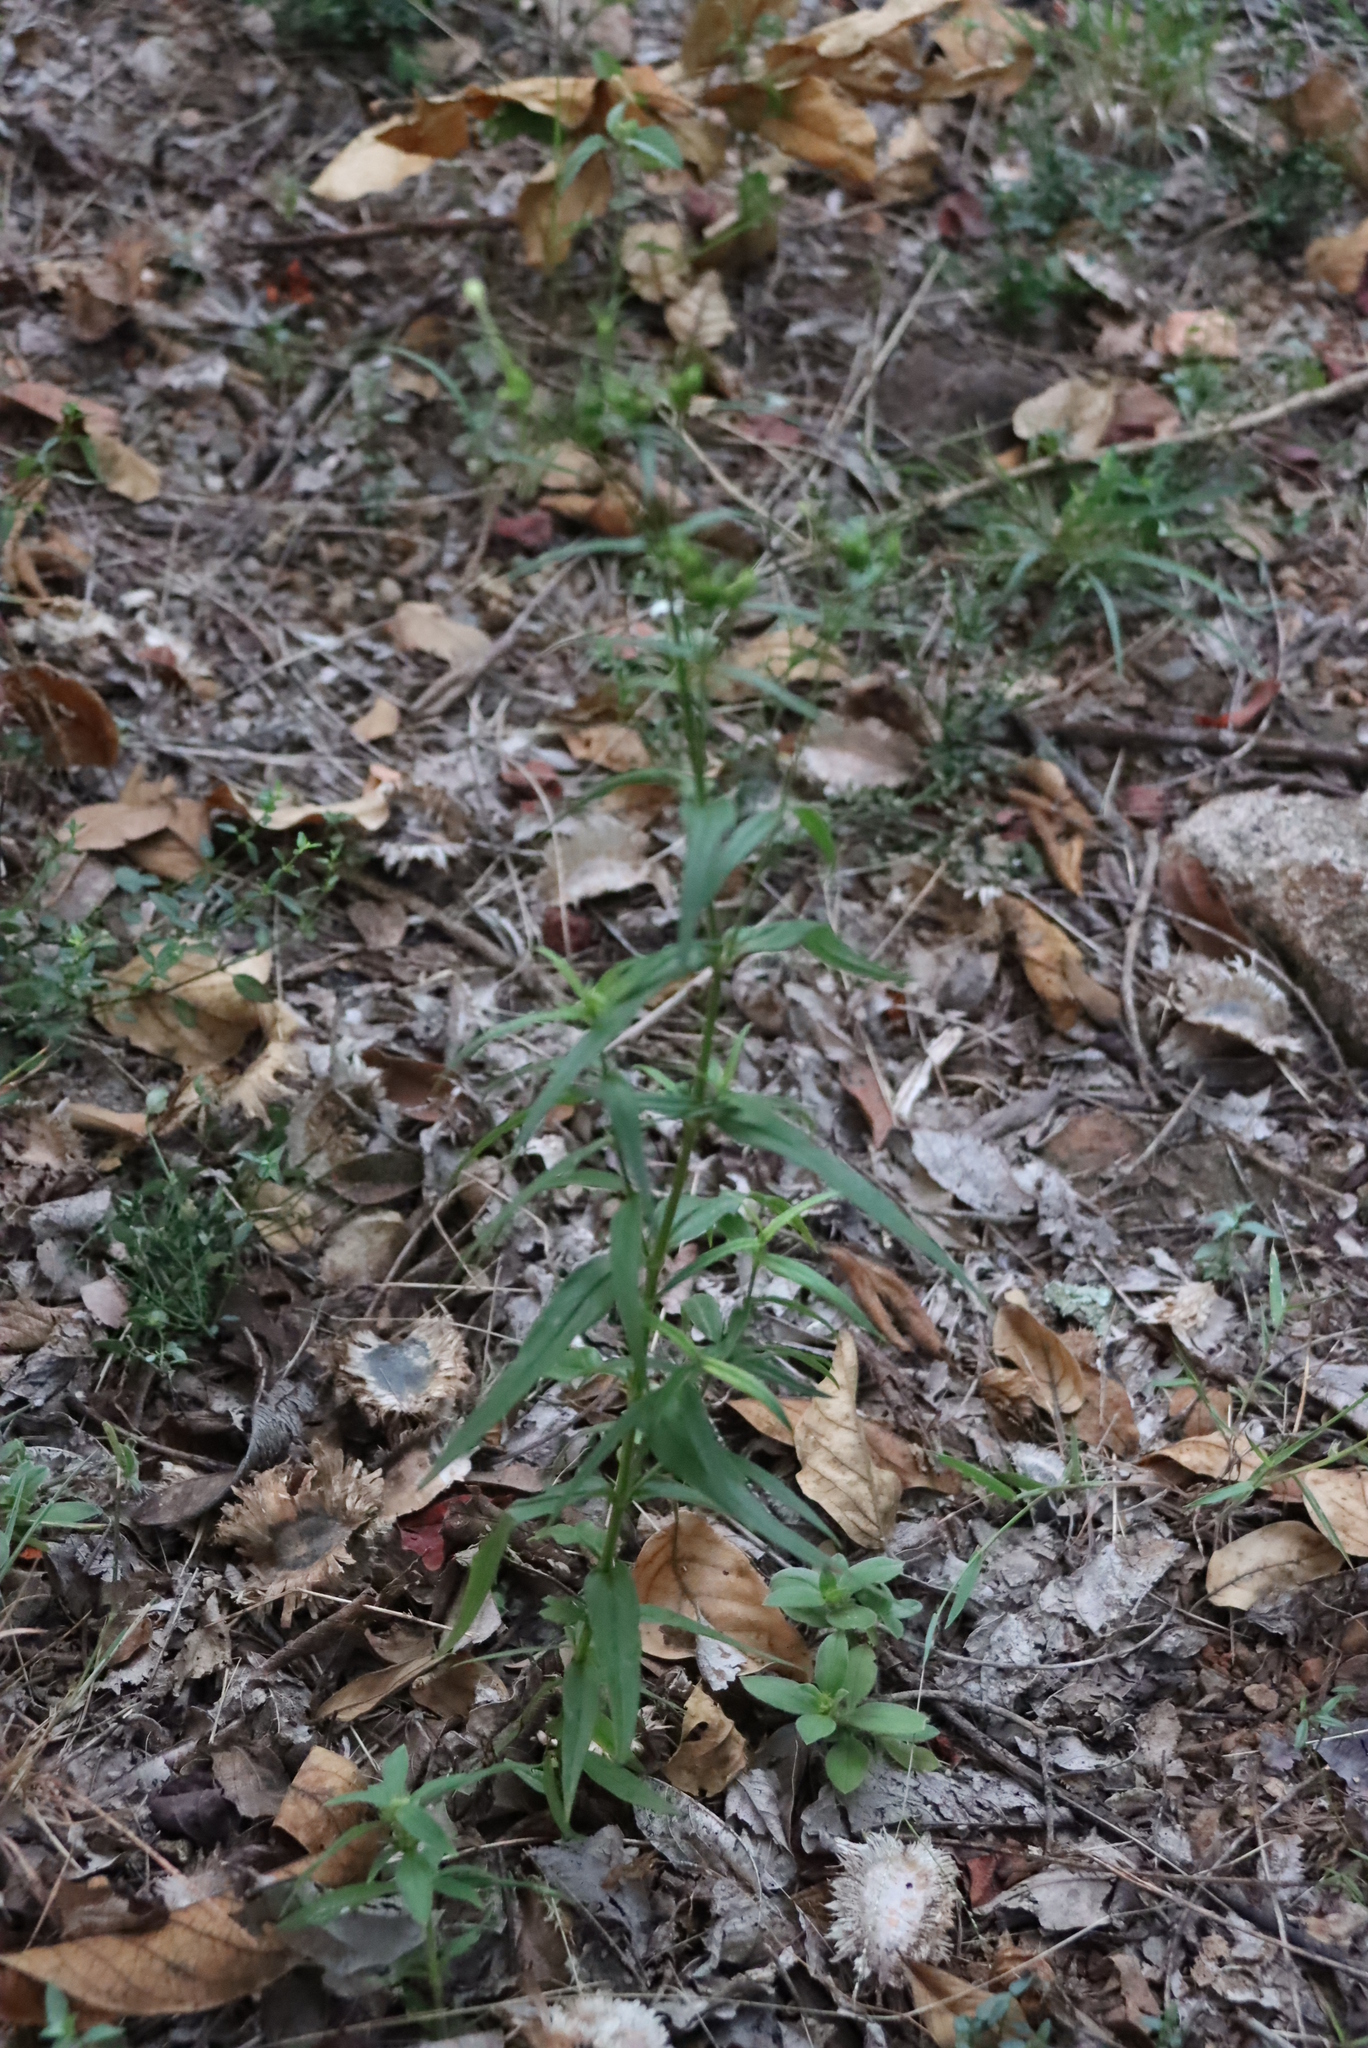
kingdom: Plantae
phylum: Tracheophyta
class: Magnoliopsida
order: Gentianales
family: Rubiaceae
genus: Conostomium
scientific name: Conostomium natalense
